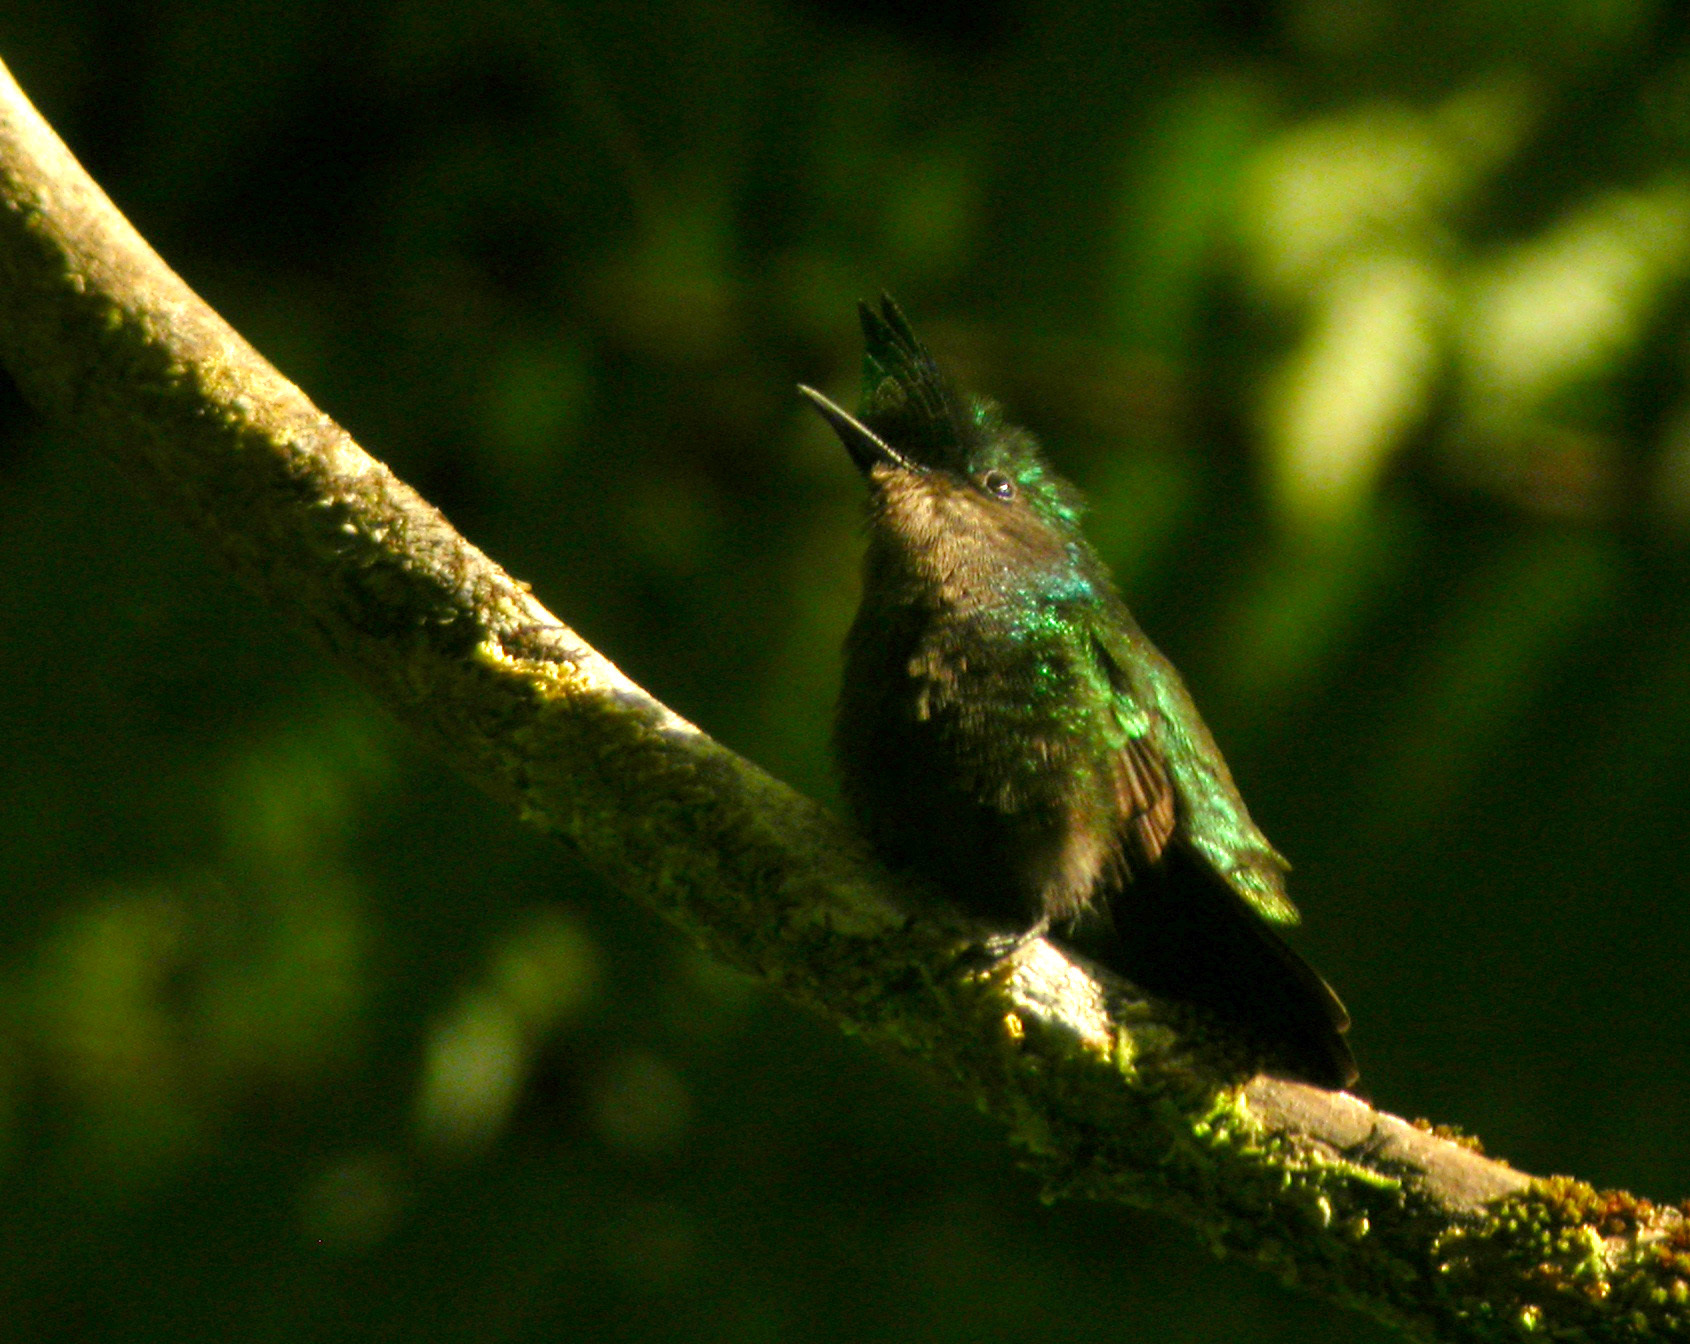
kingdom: Animalia
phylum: Chordata
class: Aves
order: Apodiformes
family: Trochilidae
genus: Orthorhyncus
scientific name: Orthorhyncus cristatus
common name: Antillean crested hummingbird
